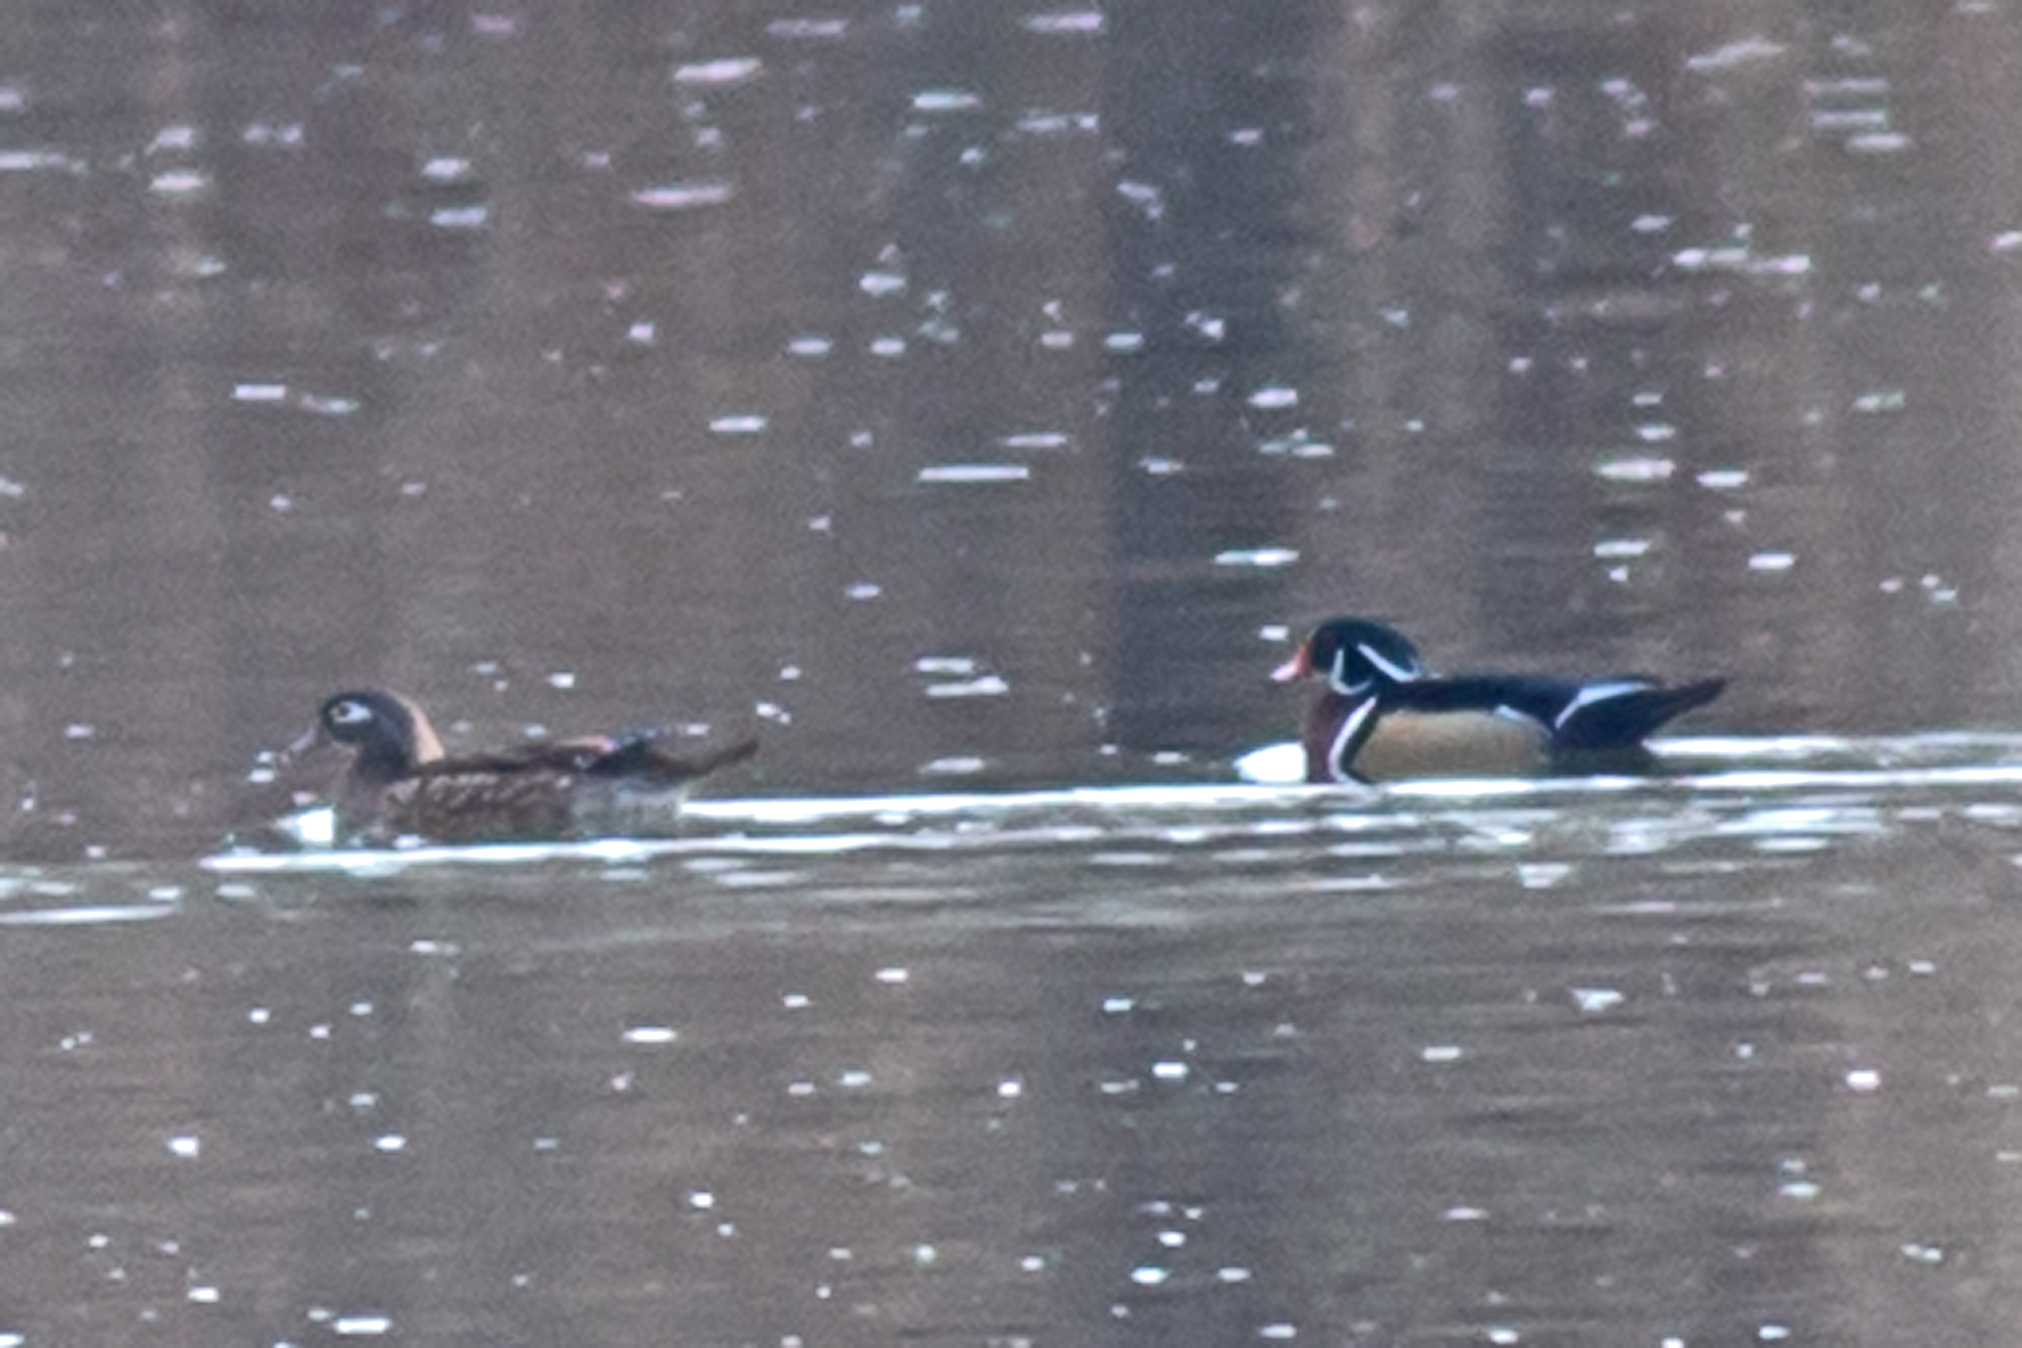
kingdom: Animalia
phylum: Chordata
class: Aves
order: Anseriformes
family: Anatidae
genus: Aix
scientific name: Aix sponsa
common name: Wood duck
